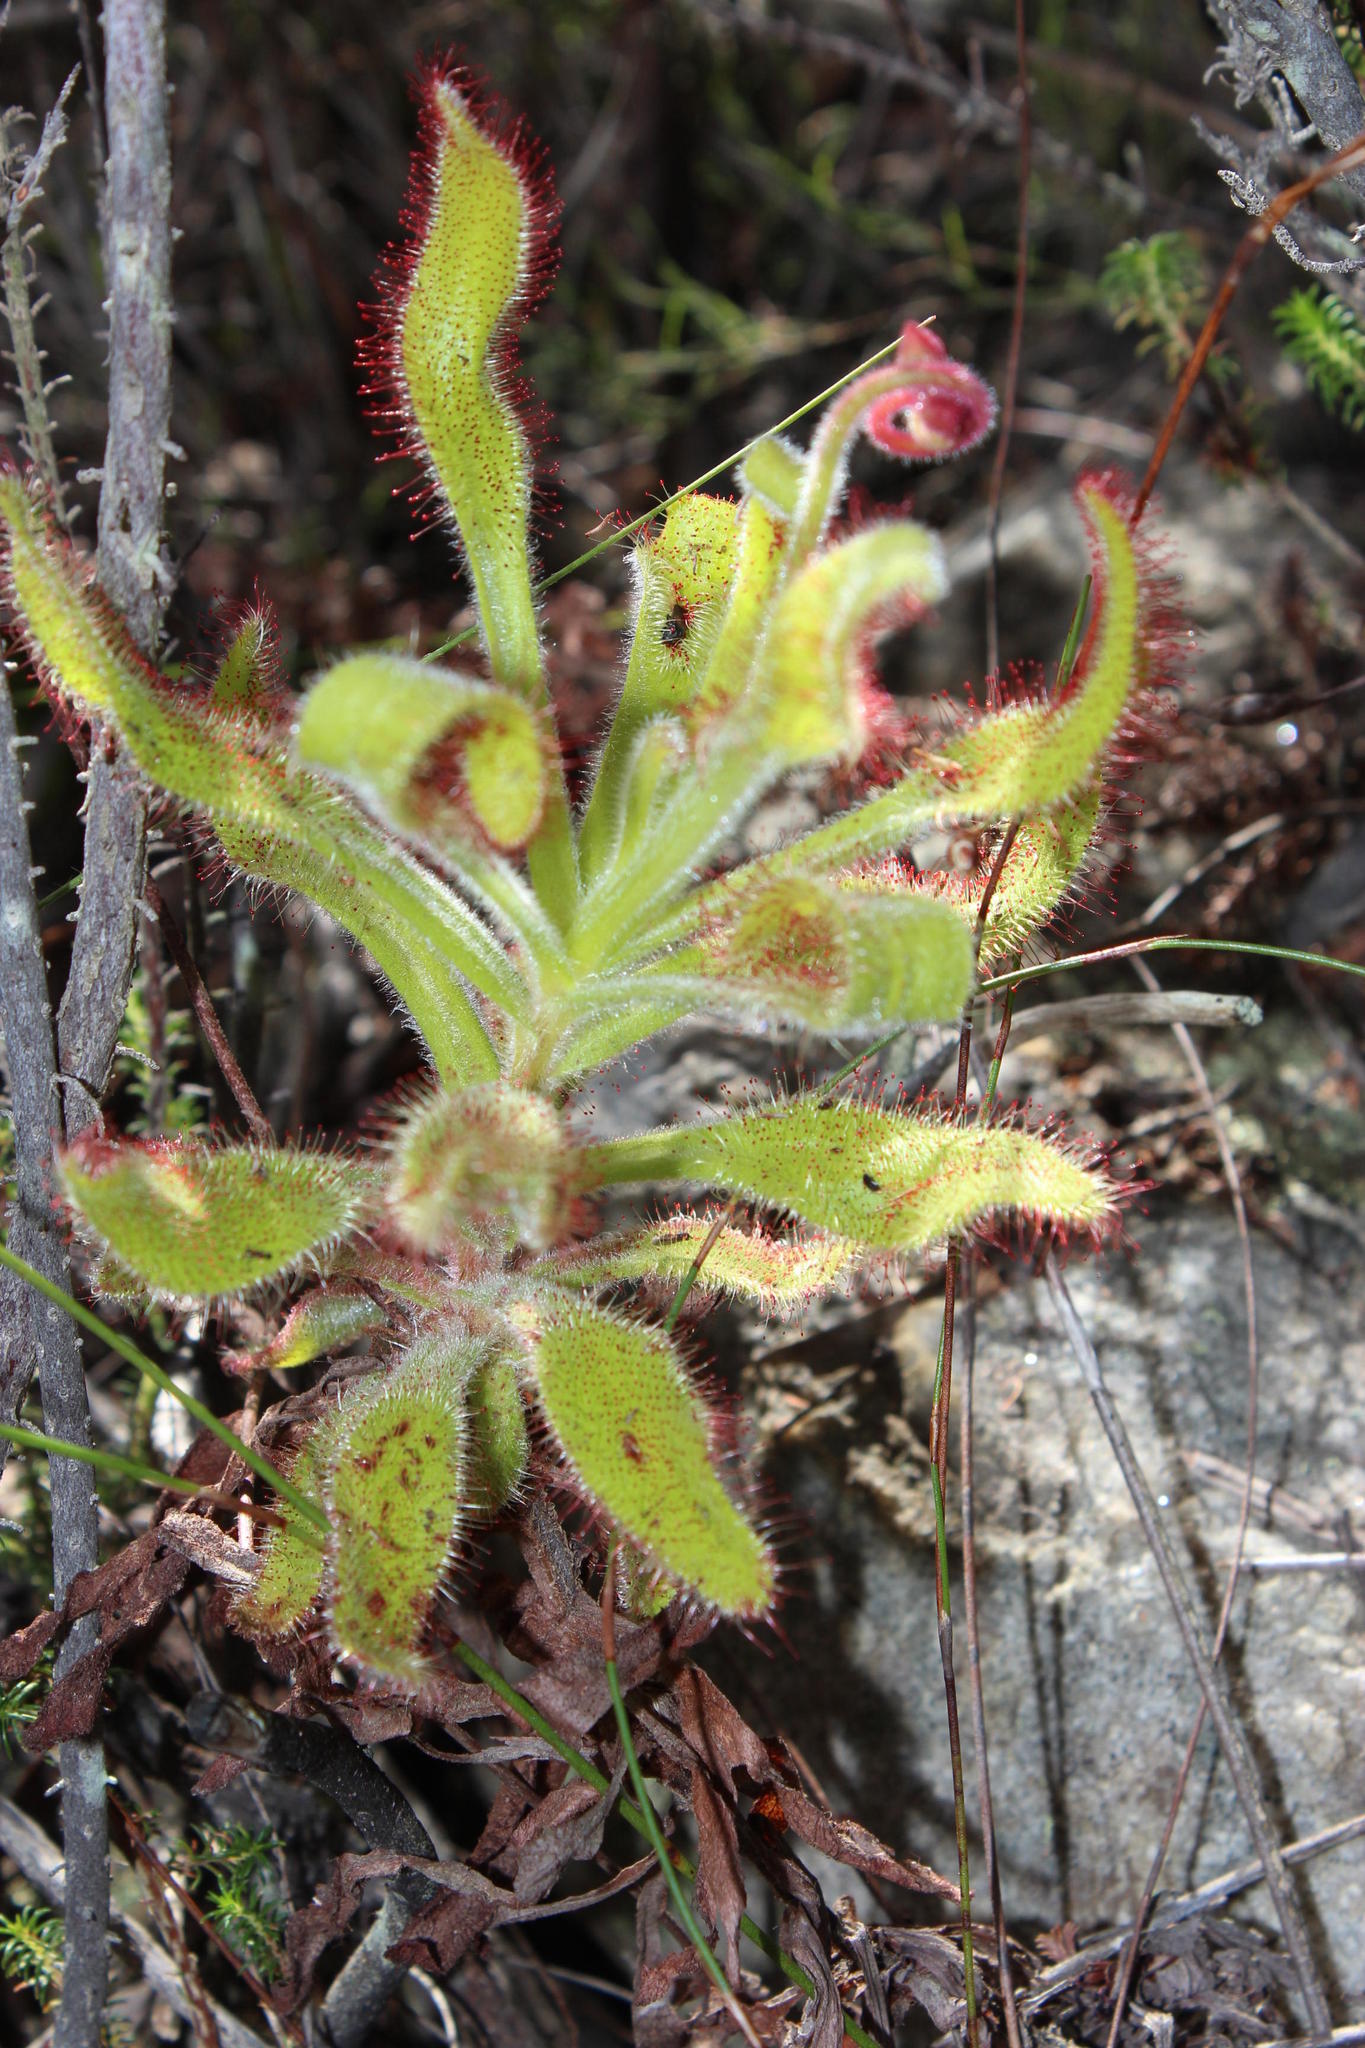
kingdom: Plantae
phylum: Tracheophyta
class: Magnoliopsida
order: Caryophyllales
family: Droseraceae
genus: Drosera
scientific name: Drosera hilaris
